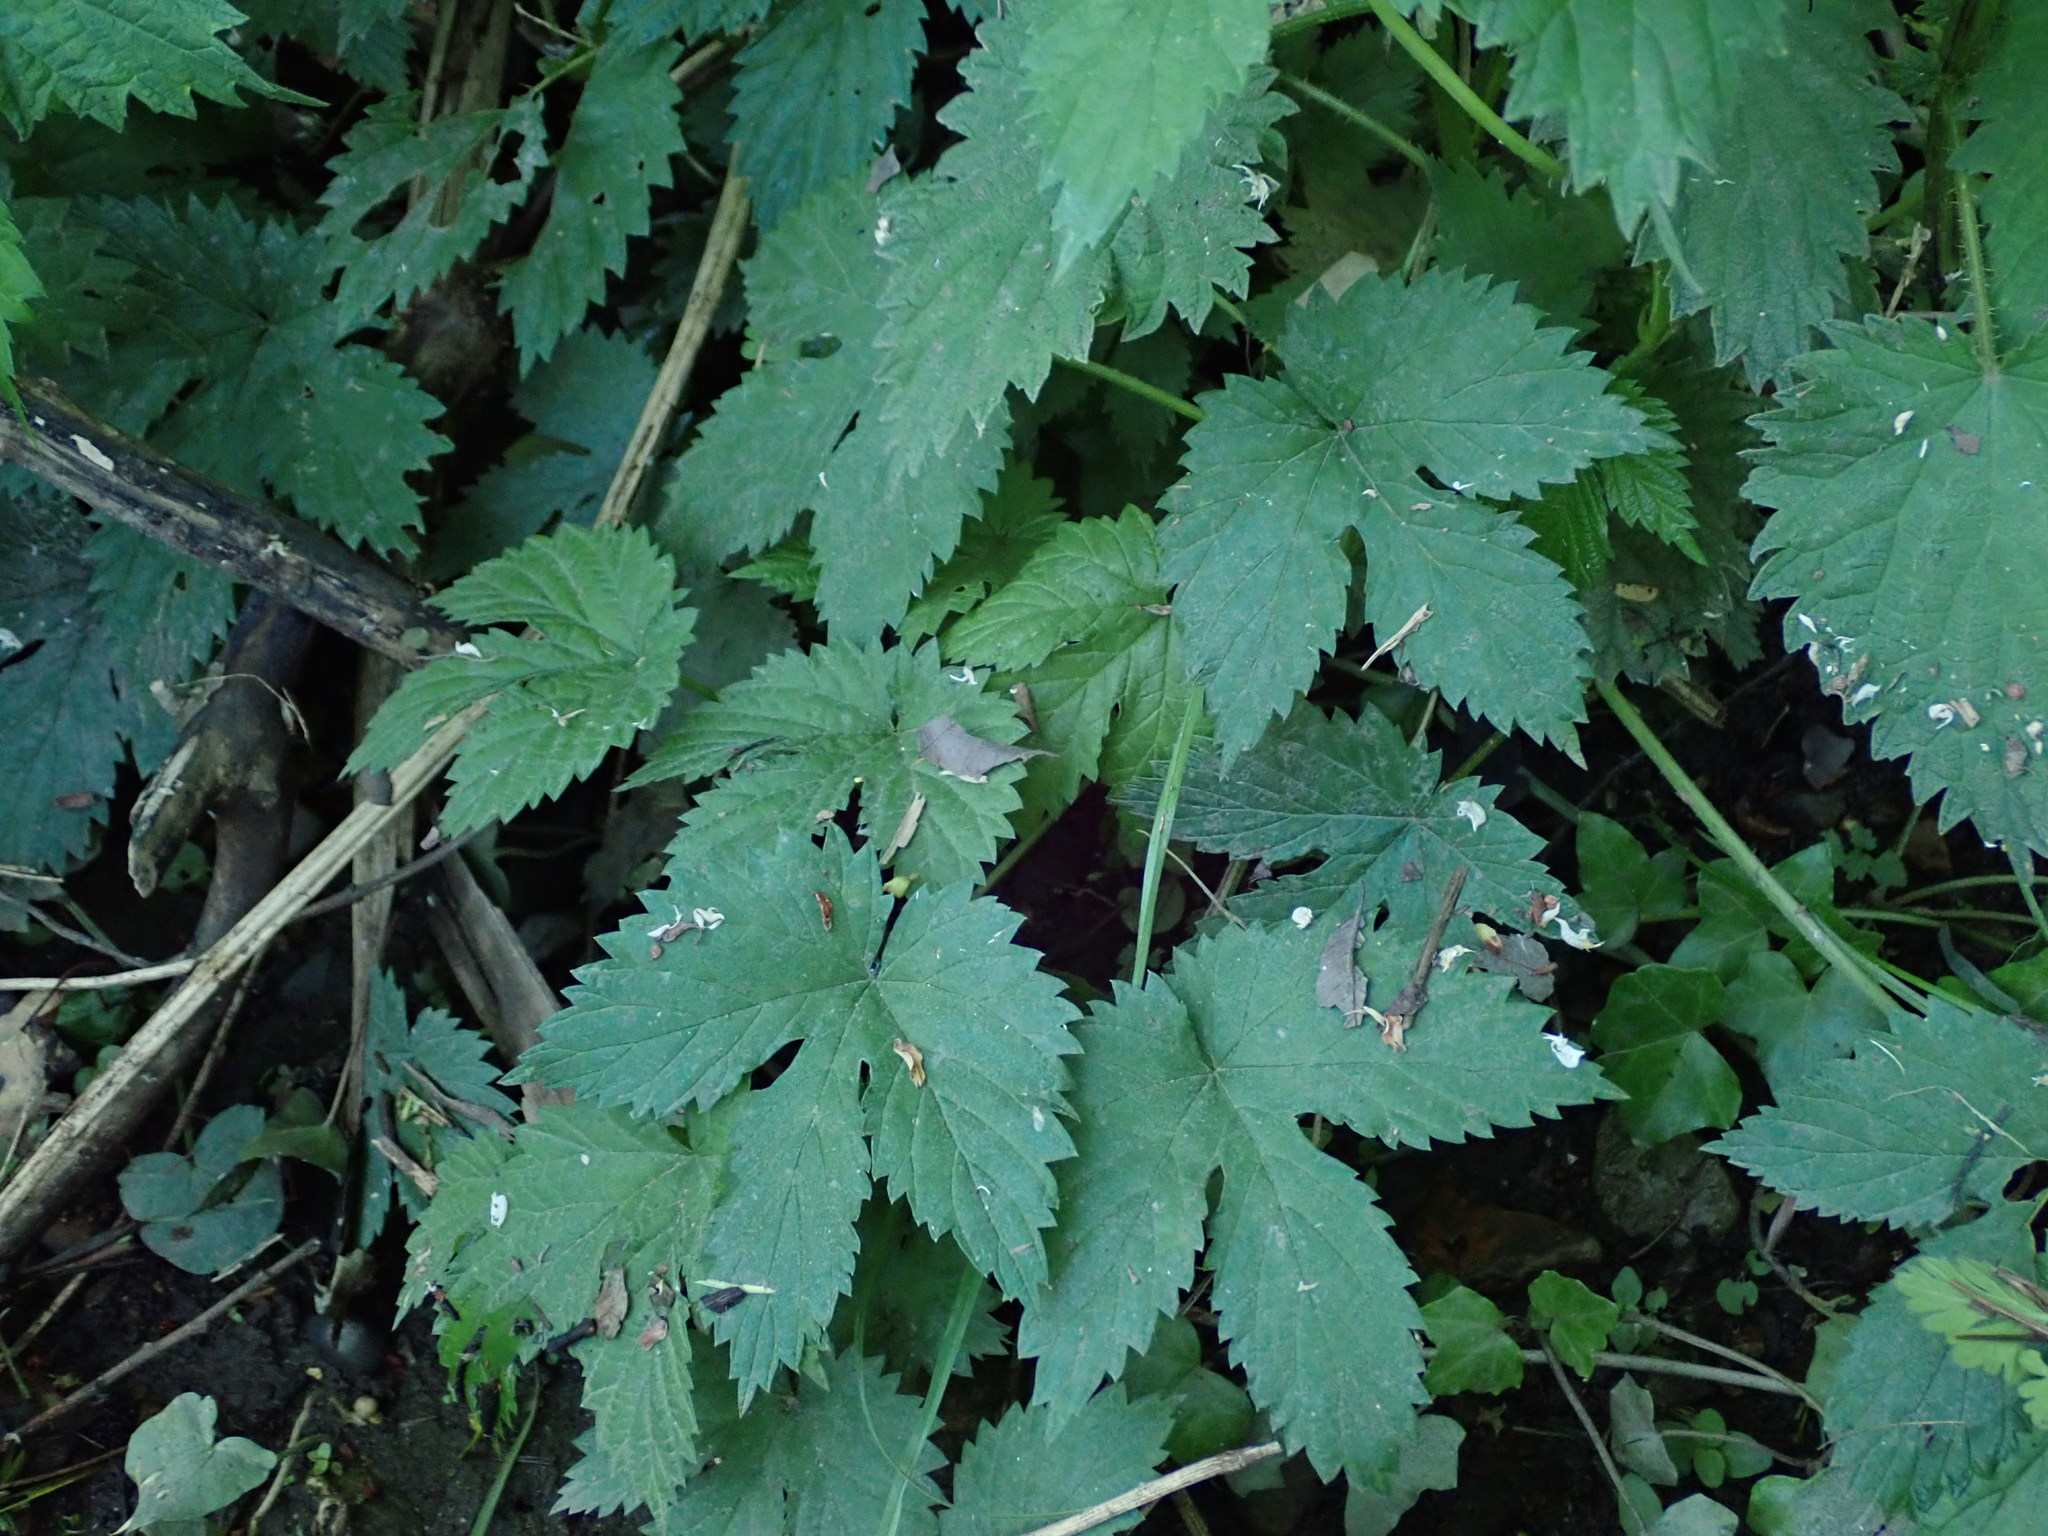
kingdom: Plantae
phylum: Tracheophyta
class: Magnoliopsida
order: Rosales
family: Cannabaceae
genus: Humulus
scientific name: Humulus lupulus
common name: Hop
